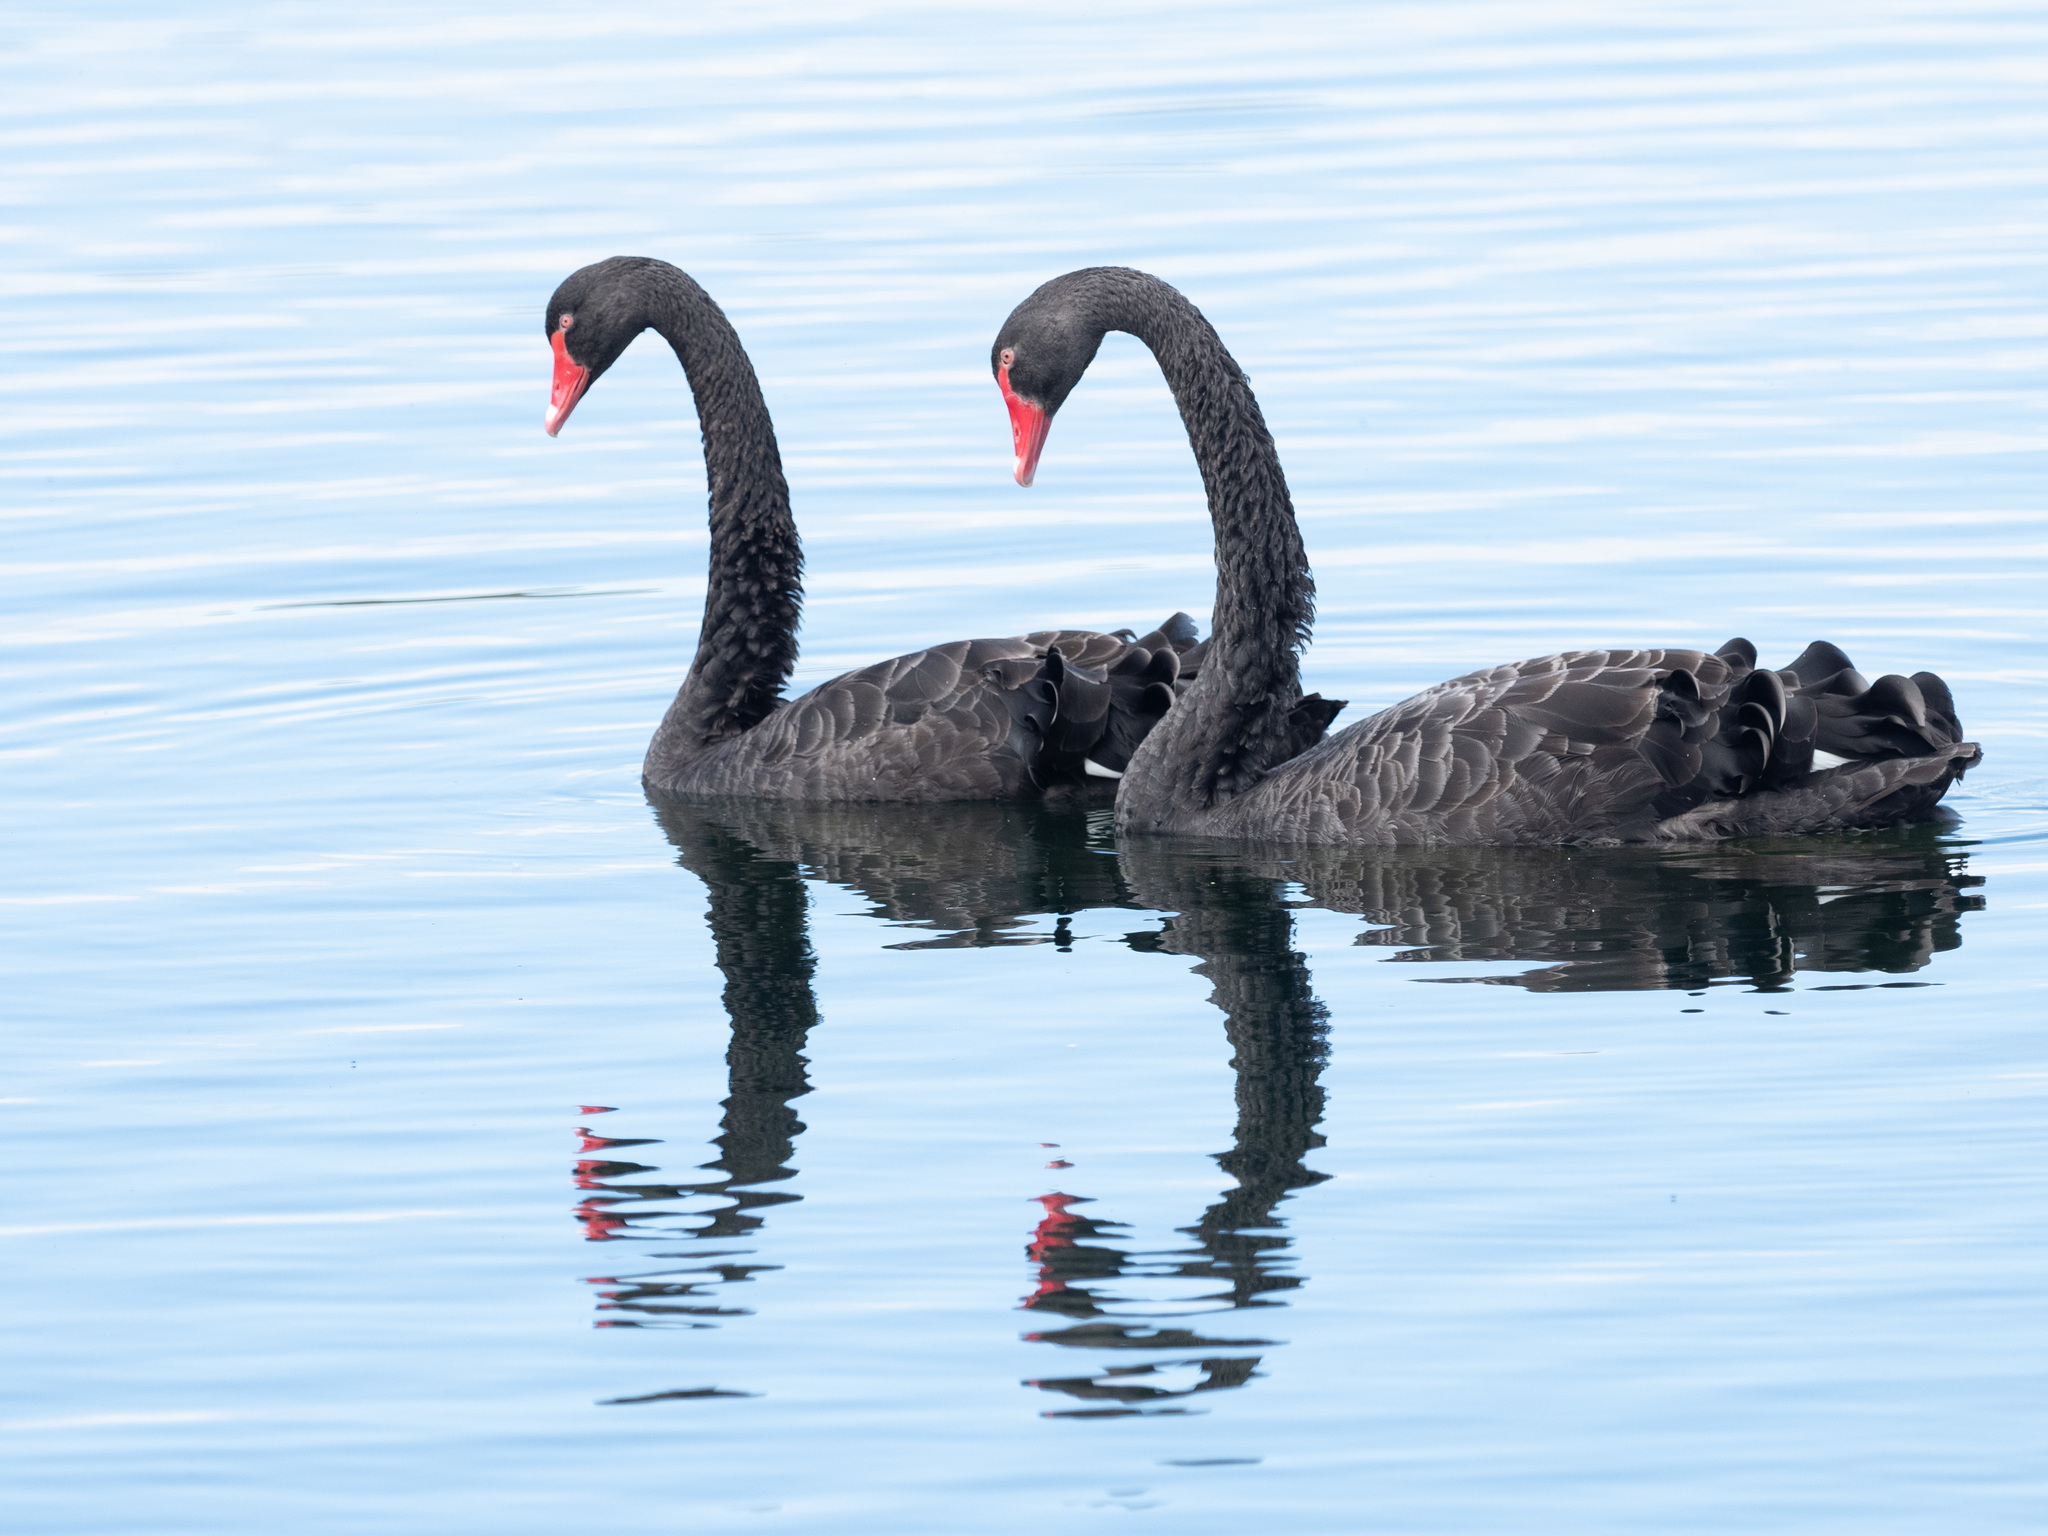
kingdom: Animalia
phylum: Chordata
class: Aves
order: Anseriformes
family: Anatidae
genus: Cygnus
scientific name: Cygnus atratus
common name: Black swan
